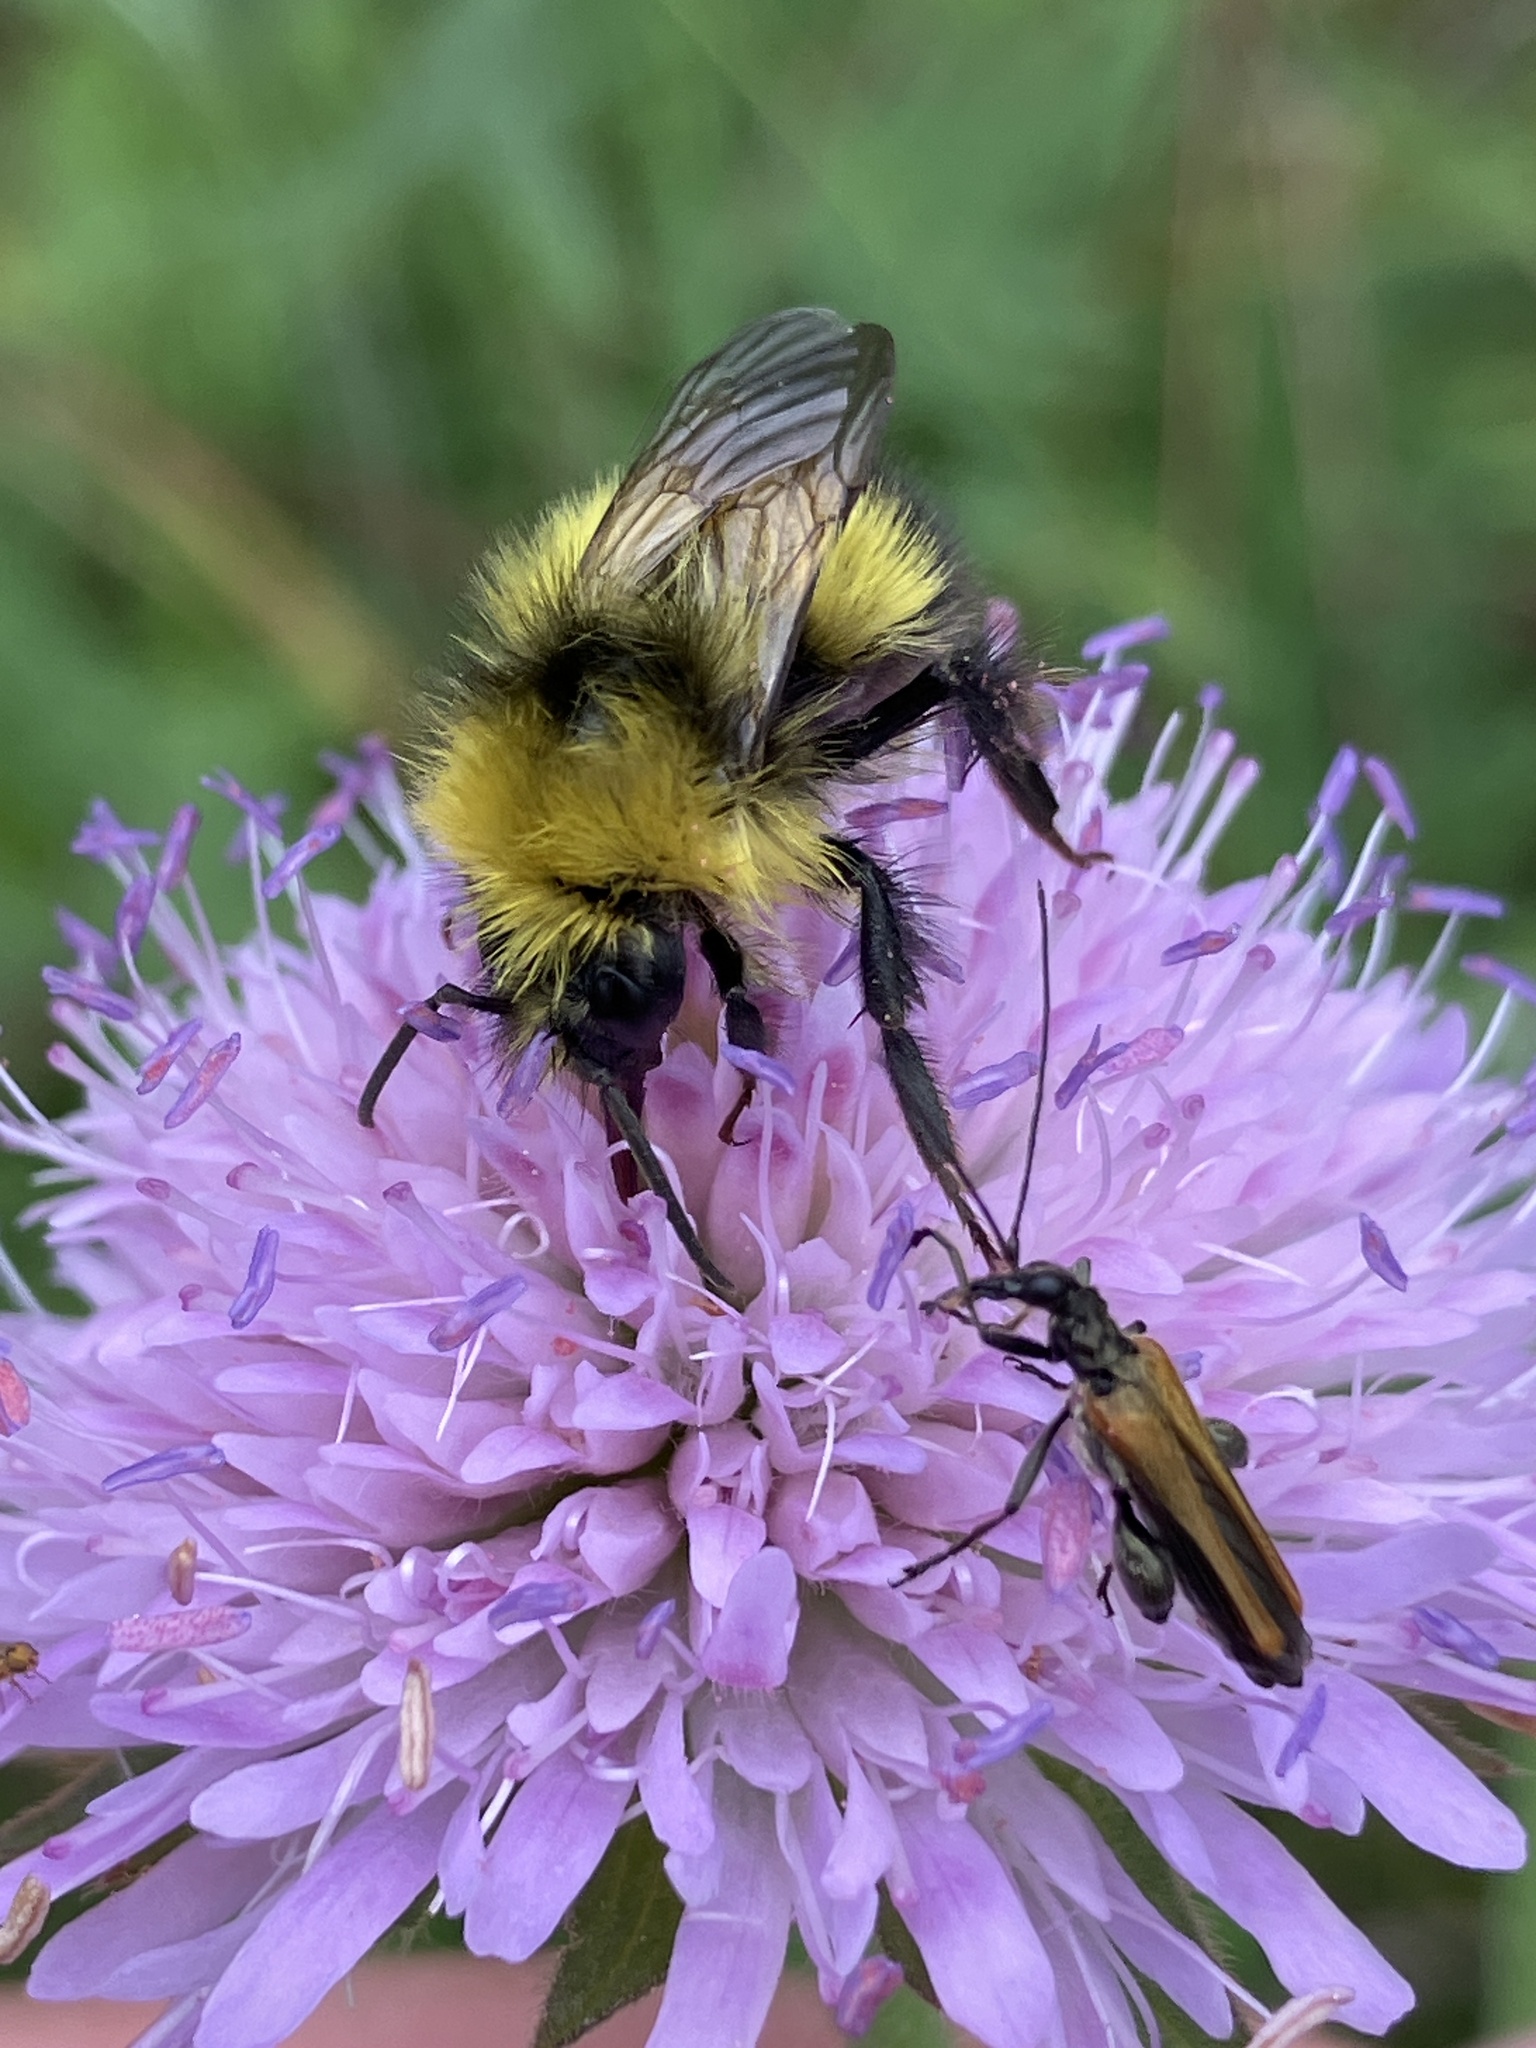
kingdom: Animalia
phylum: Arthropoda
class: Insecta
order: Coleoptera
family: Oedemeridae
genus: Oedemera
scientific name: Oedemera femorata
